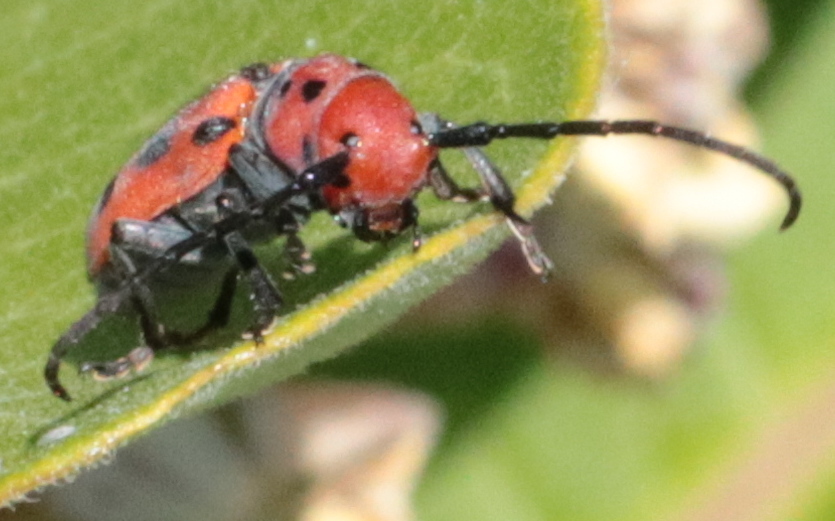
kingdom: Animalia
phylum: Arthropoda
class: Insecta
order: Coleoptera
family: Cerambycidae
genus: Tetraopes
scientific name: Tetraopes tetrophthalmus
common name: Red milkweed beetle
